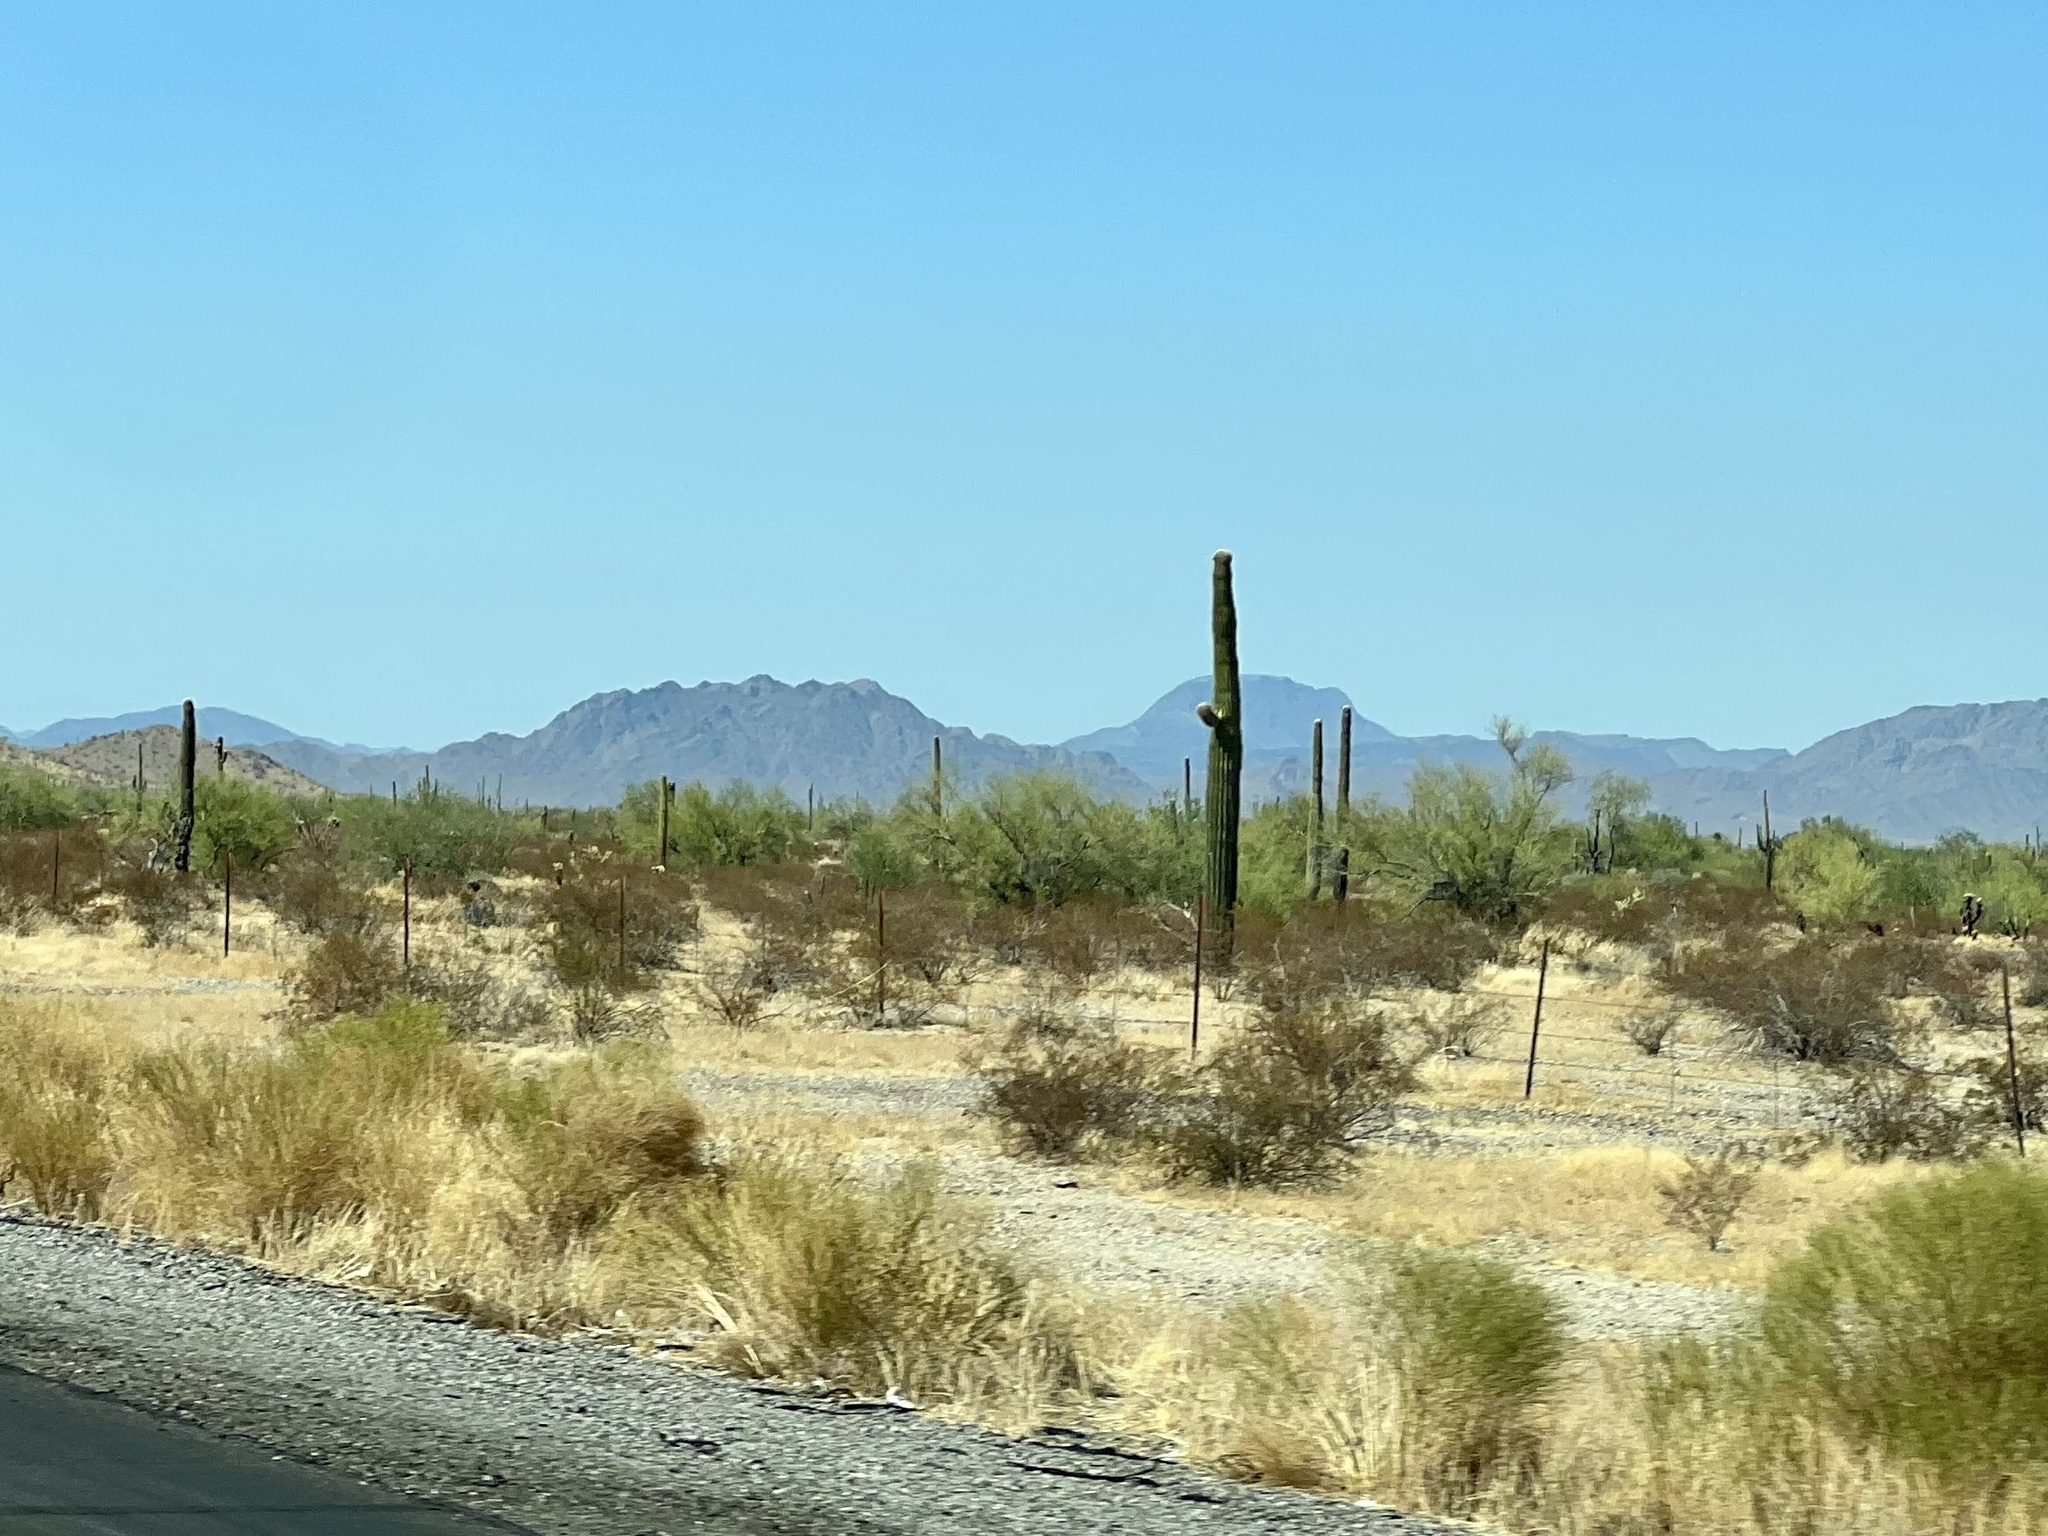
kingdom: Plantae
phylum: Tracheophyta
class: Magnoliopsida
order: Caryophyllales
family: Cactaceae
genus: Carnegiea
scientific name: Carnegiea gigantea
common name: Saguaro
